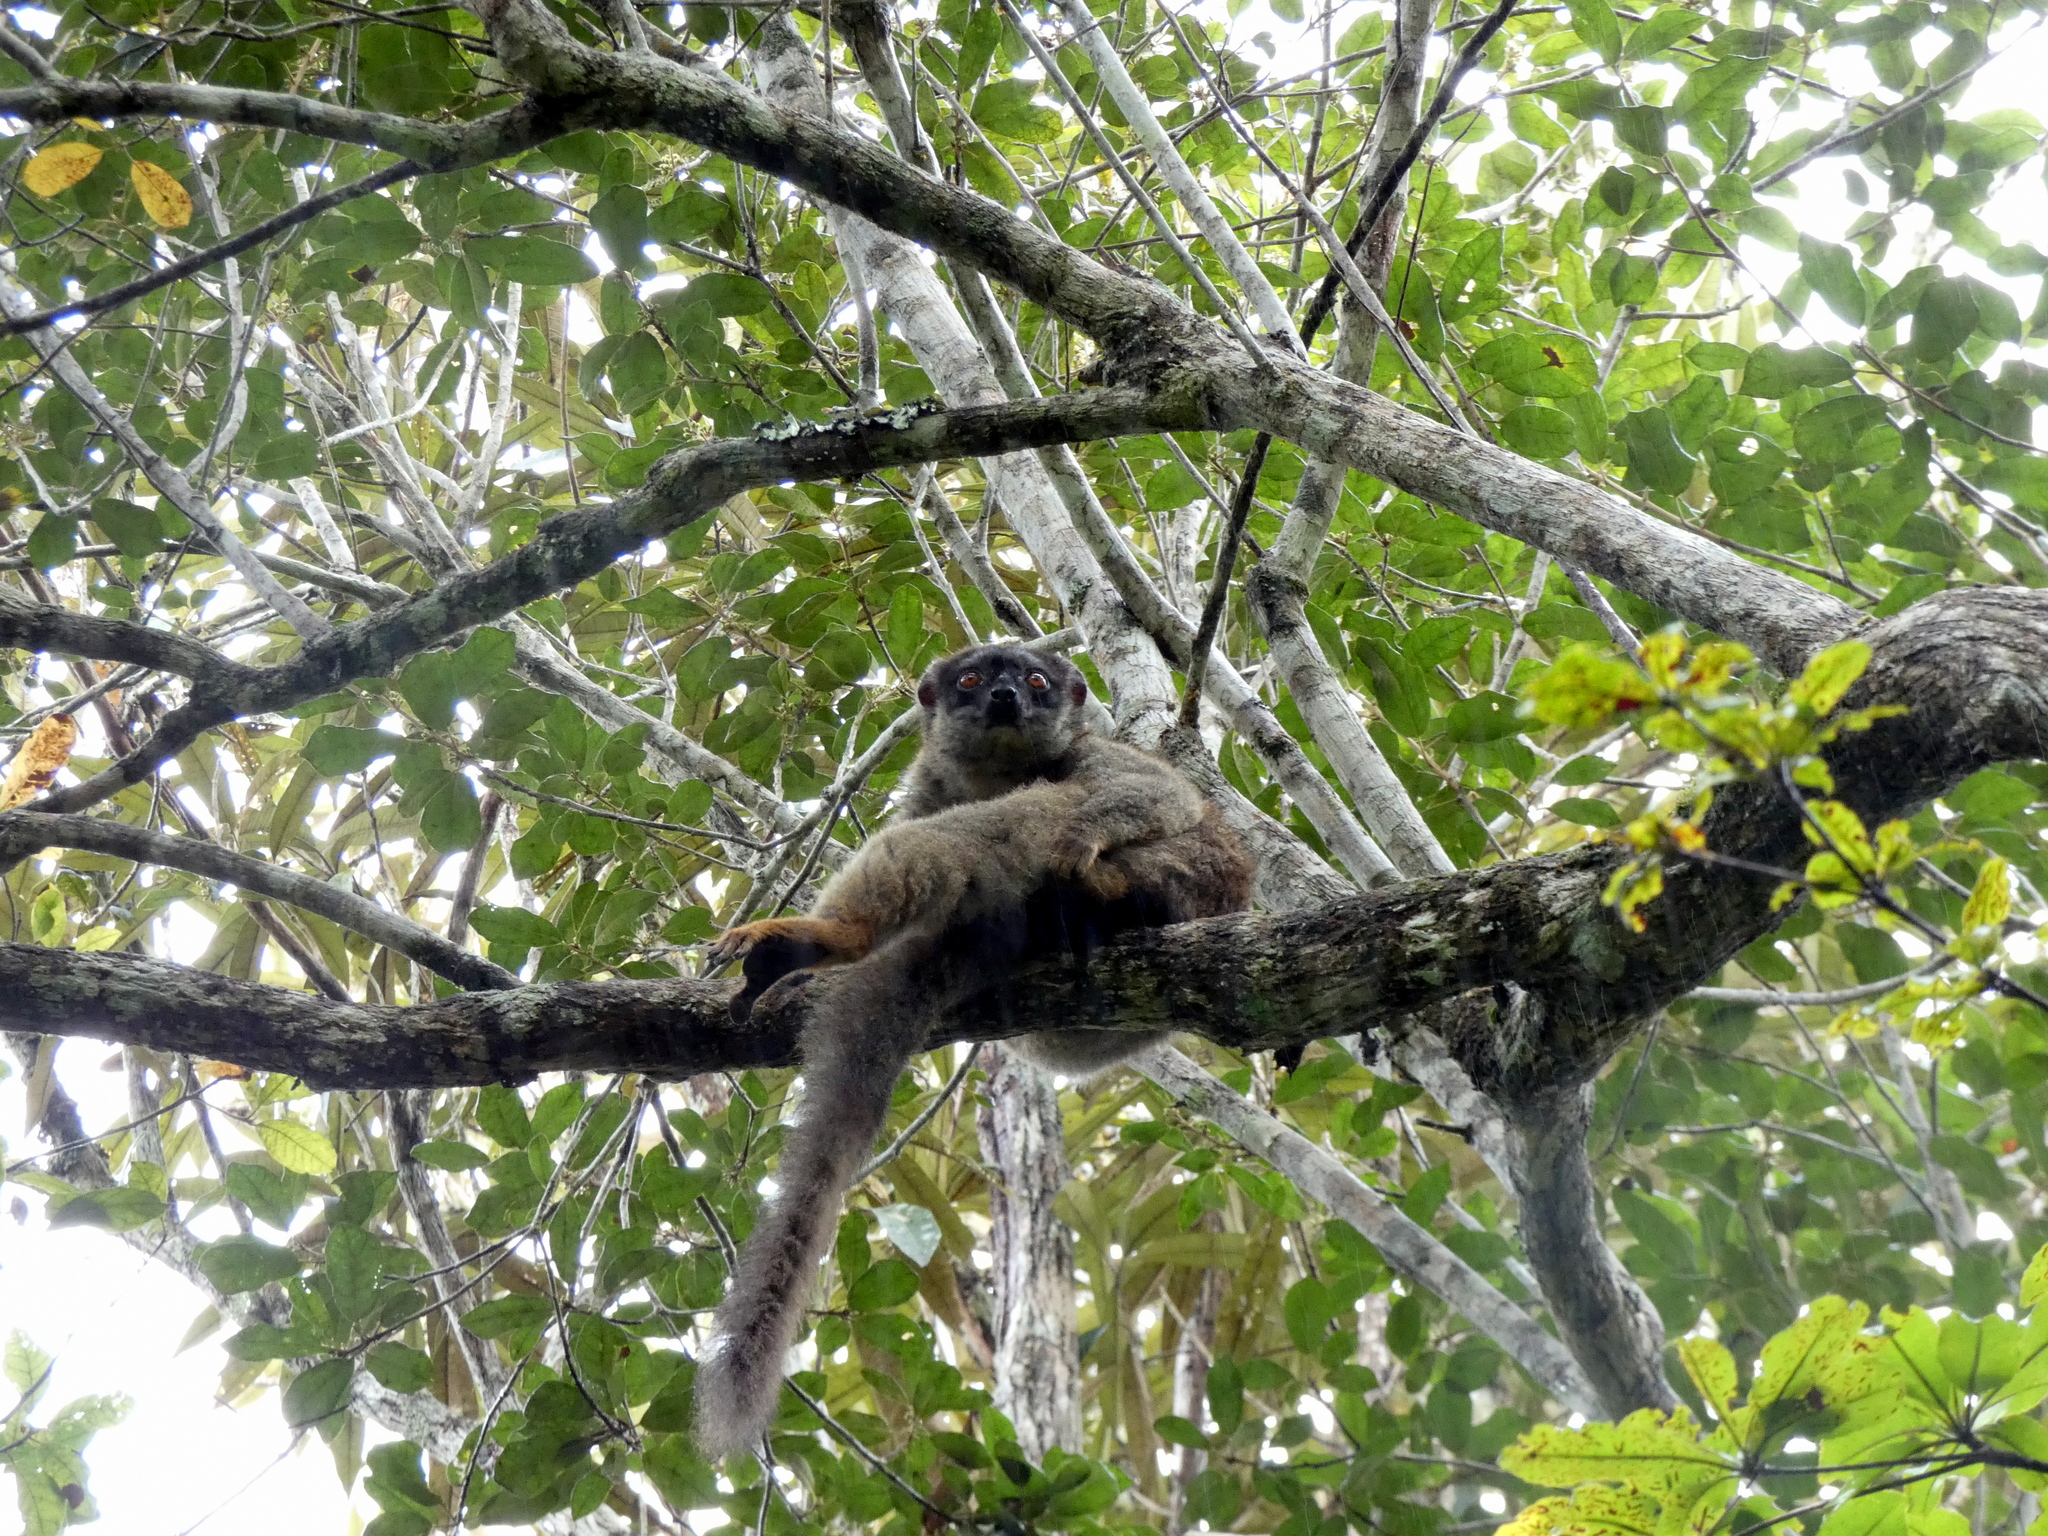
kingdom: Animalia
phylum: Chordata
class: Mammalia
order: Primates
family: Lemuridae
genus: Eulemur
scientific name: Eulemur fulvus
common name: Brown lemur
